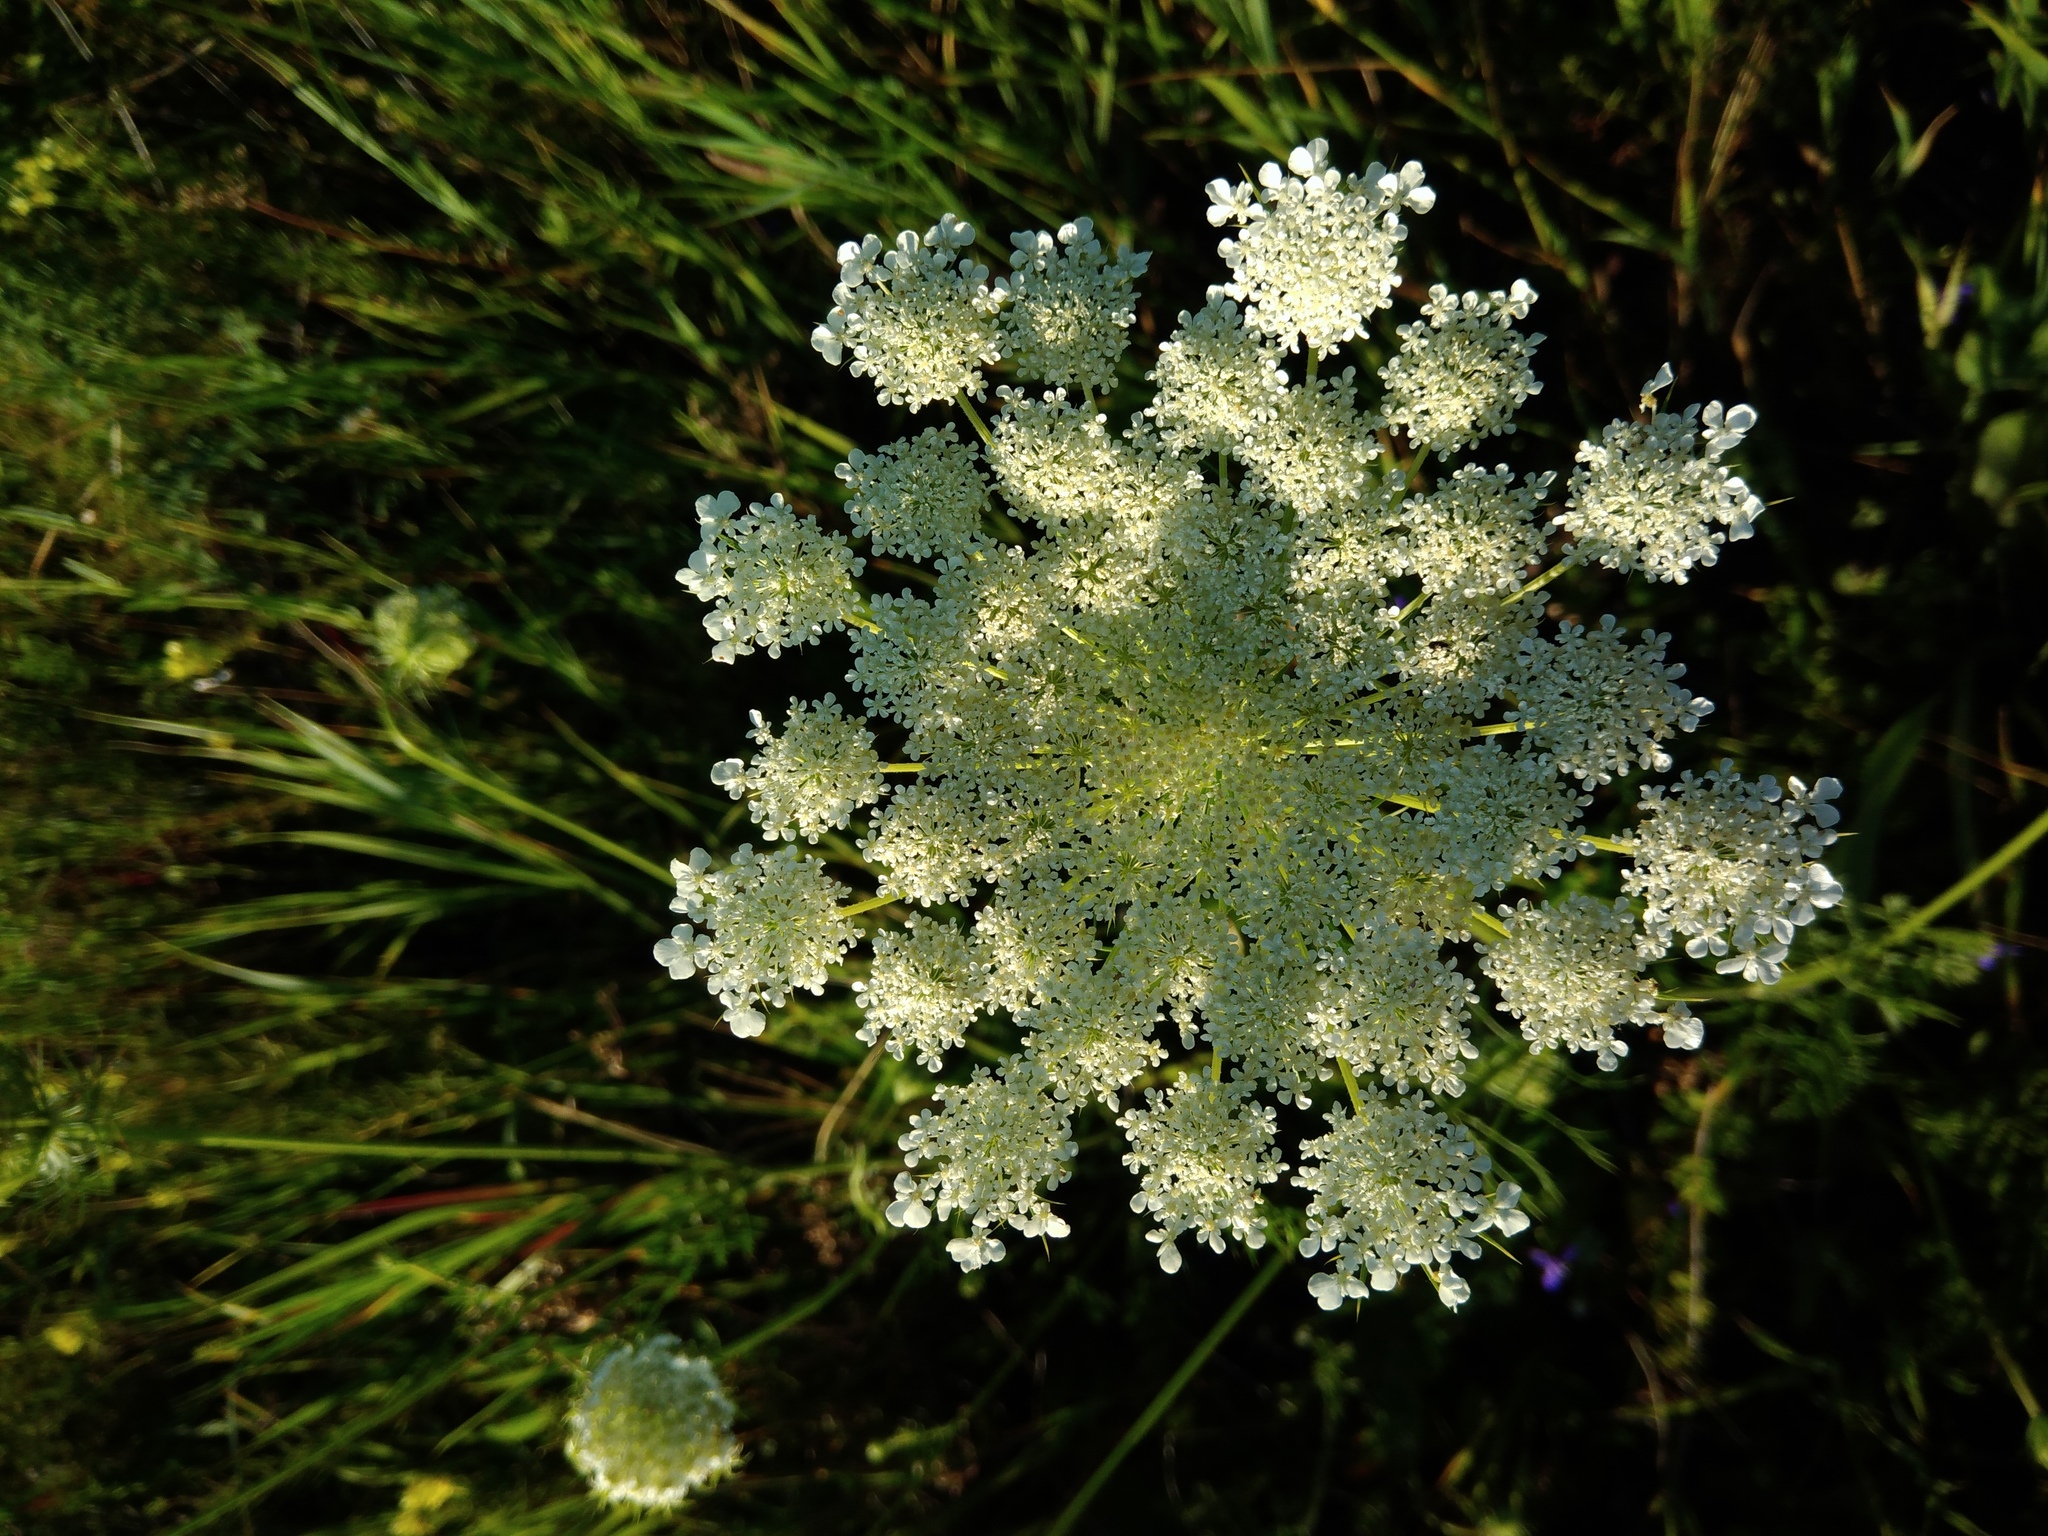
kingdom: Plantae
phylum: Tracheophyta
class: Magnoliopsida
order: Apiales
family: Apiaceae
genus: Daucus
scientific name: Daucus carota
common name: Wild carrot
